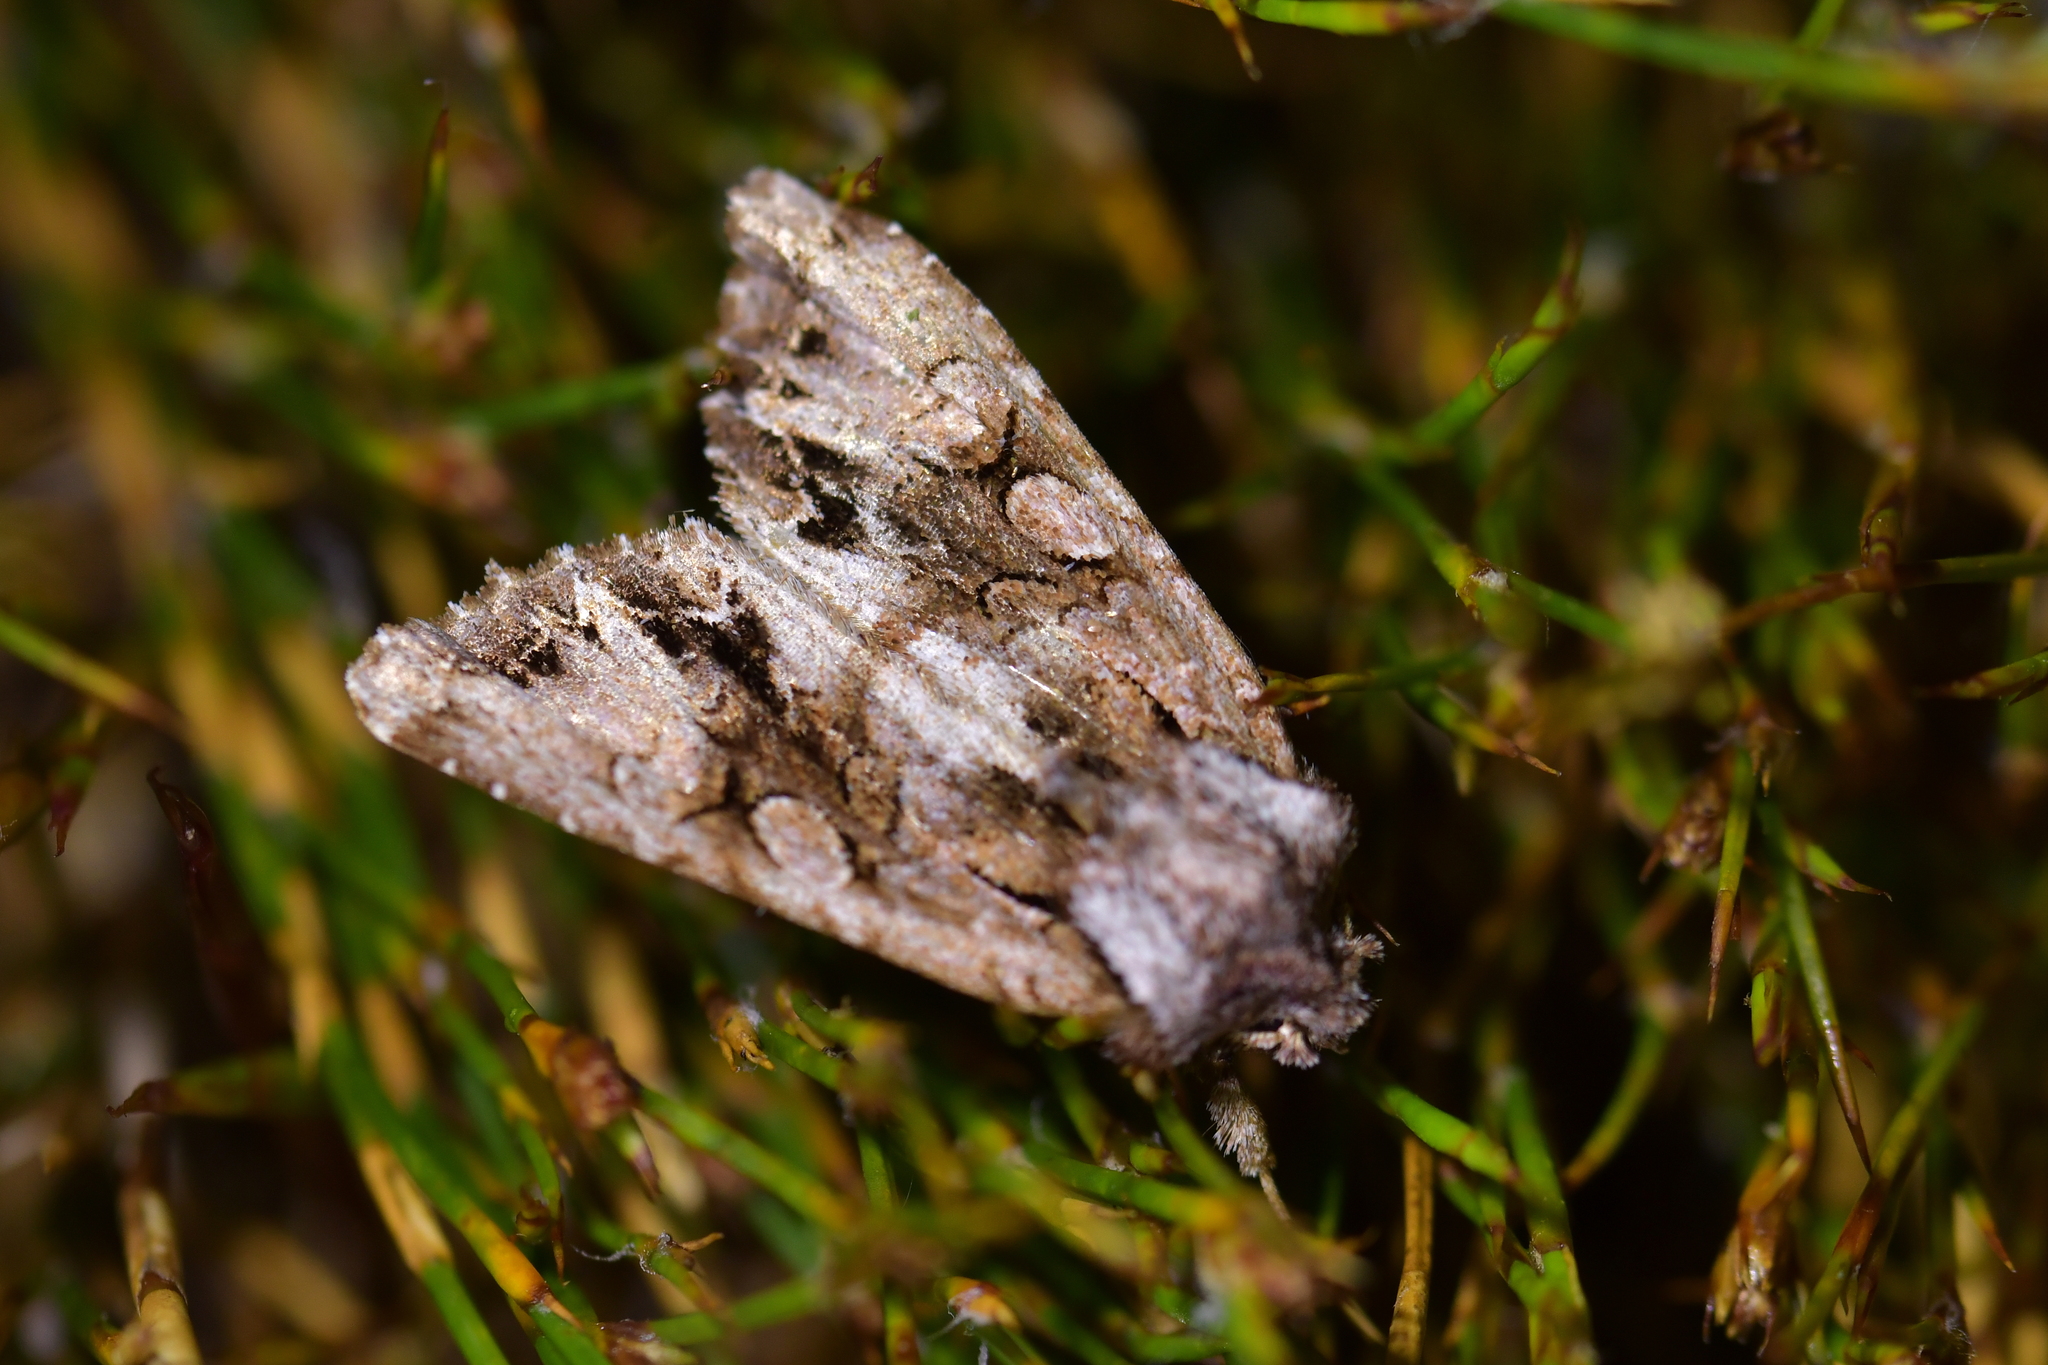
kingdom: Animalia
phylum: Arthropoda
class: Insecta
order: Lepidoptera
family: Noctuidae
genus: Ichneutica
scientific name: Ichneutica skelloni
